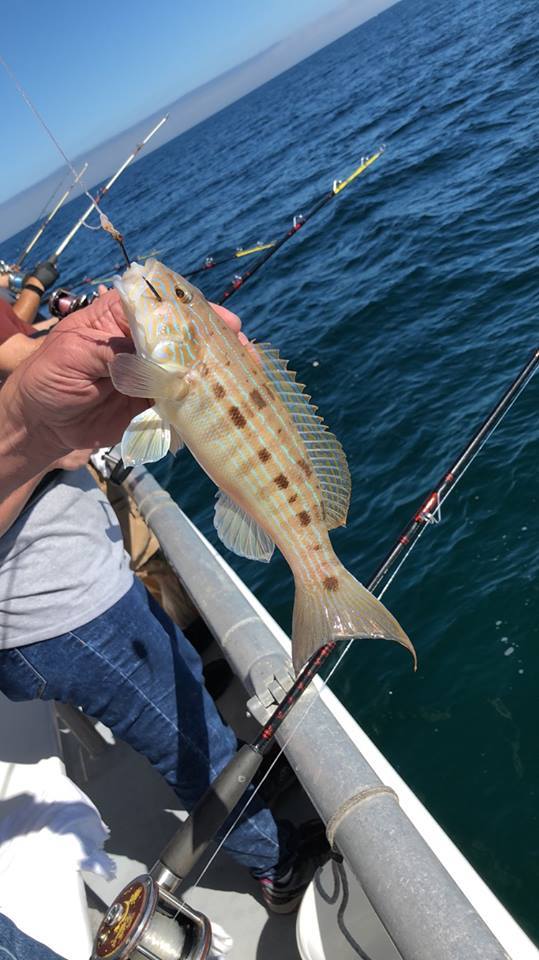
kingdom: Animalia
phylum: Chordata
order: Perciformes
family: Serranidae
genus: Diplectrum
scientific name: Diplectrum formosum
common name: Sand perch
